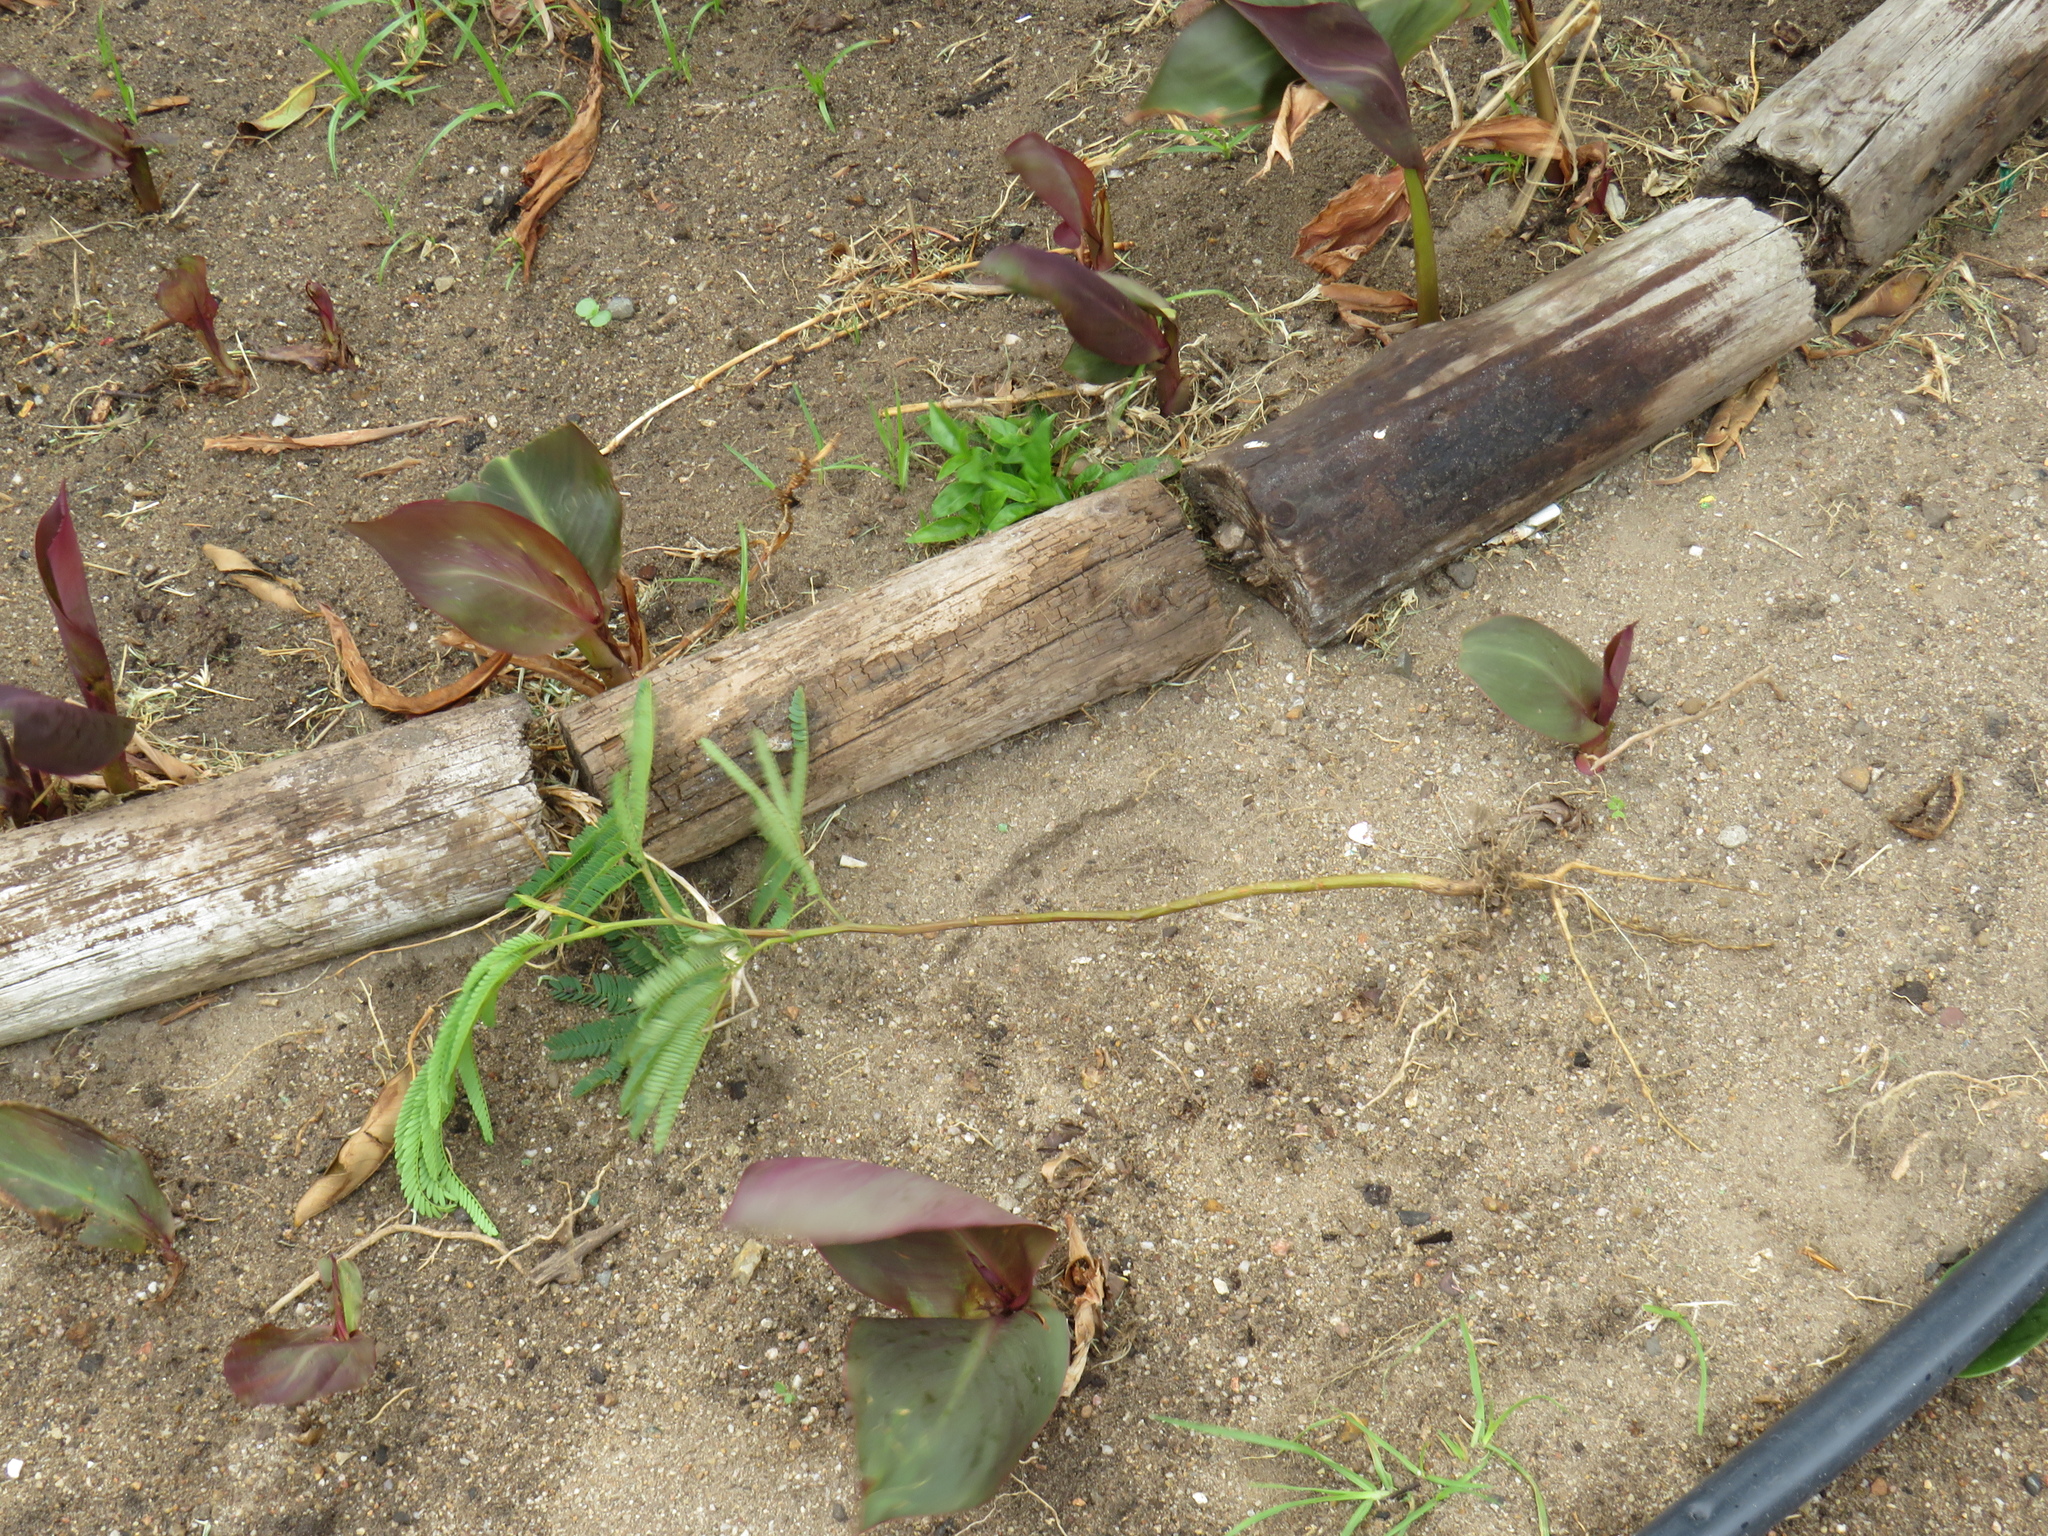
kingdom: Plantae
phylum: Tracheophyta
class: Magnoliopsida
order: Fabales
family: Fabaceae
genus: Paraserianthes
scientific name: Paraserianthes lophantha
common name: Plume albizia
